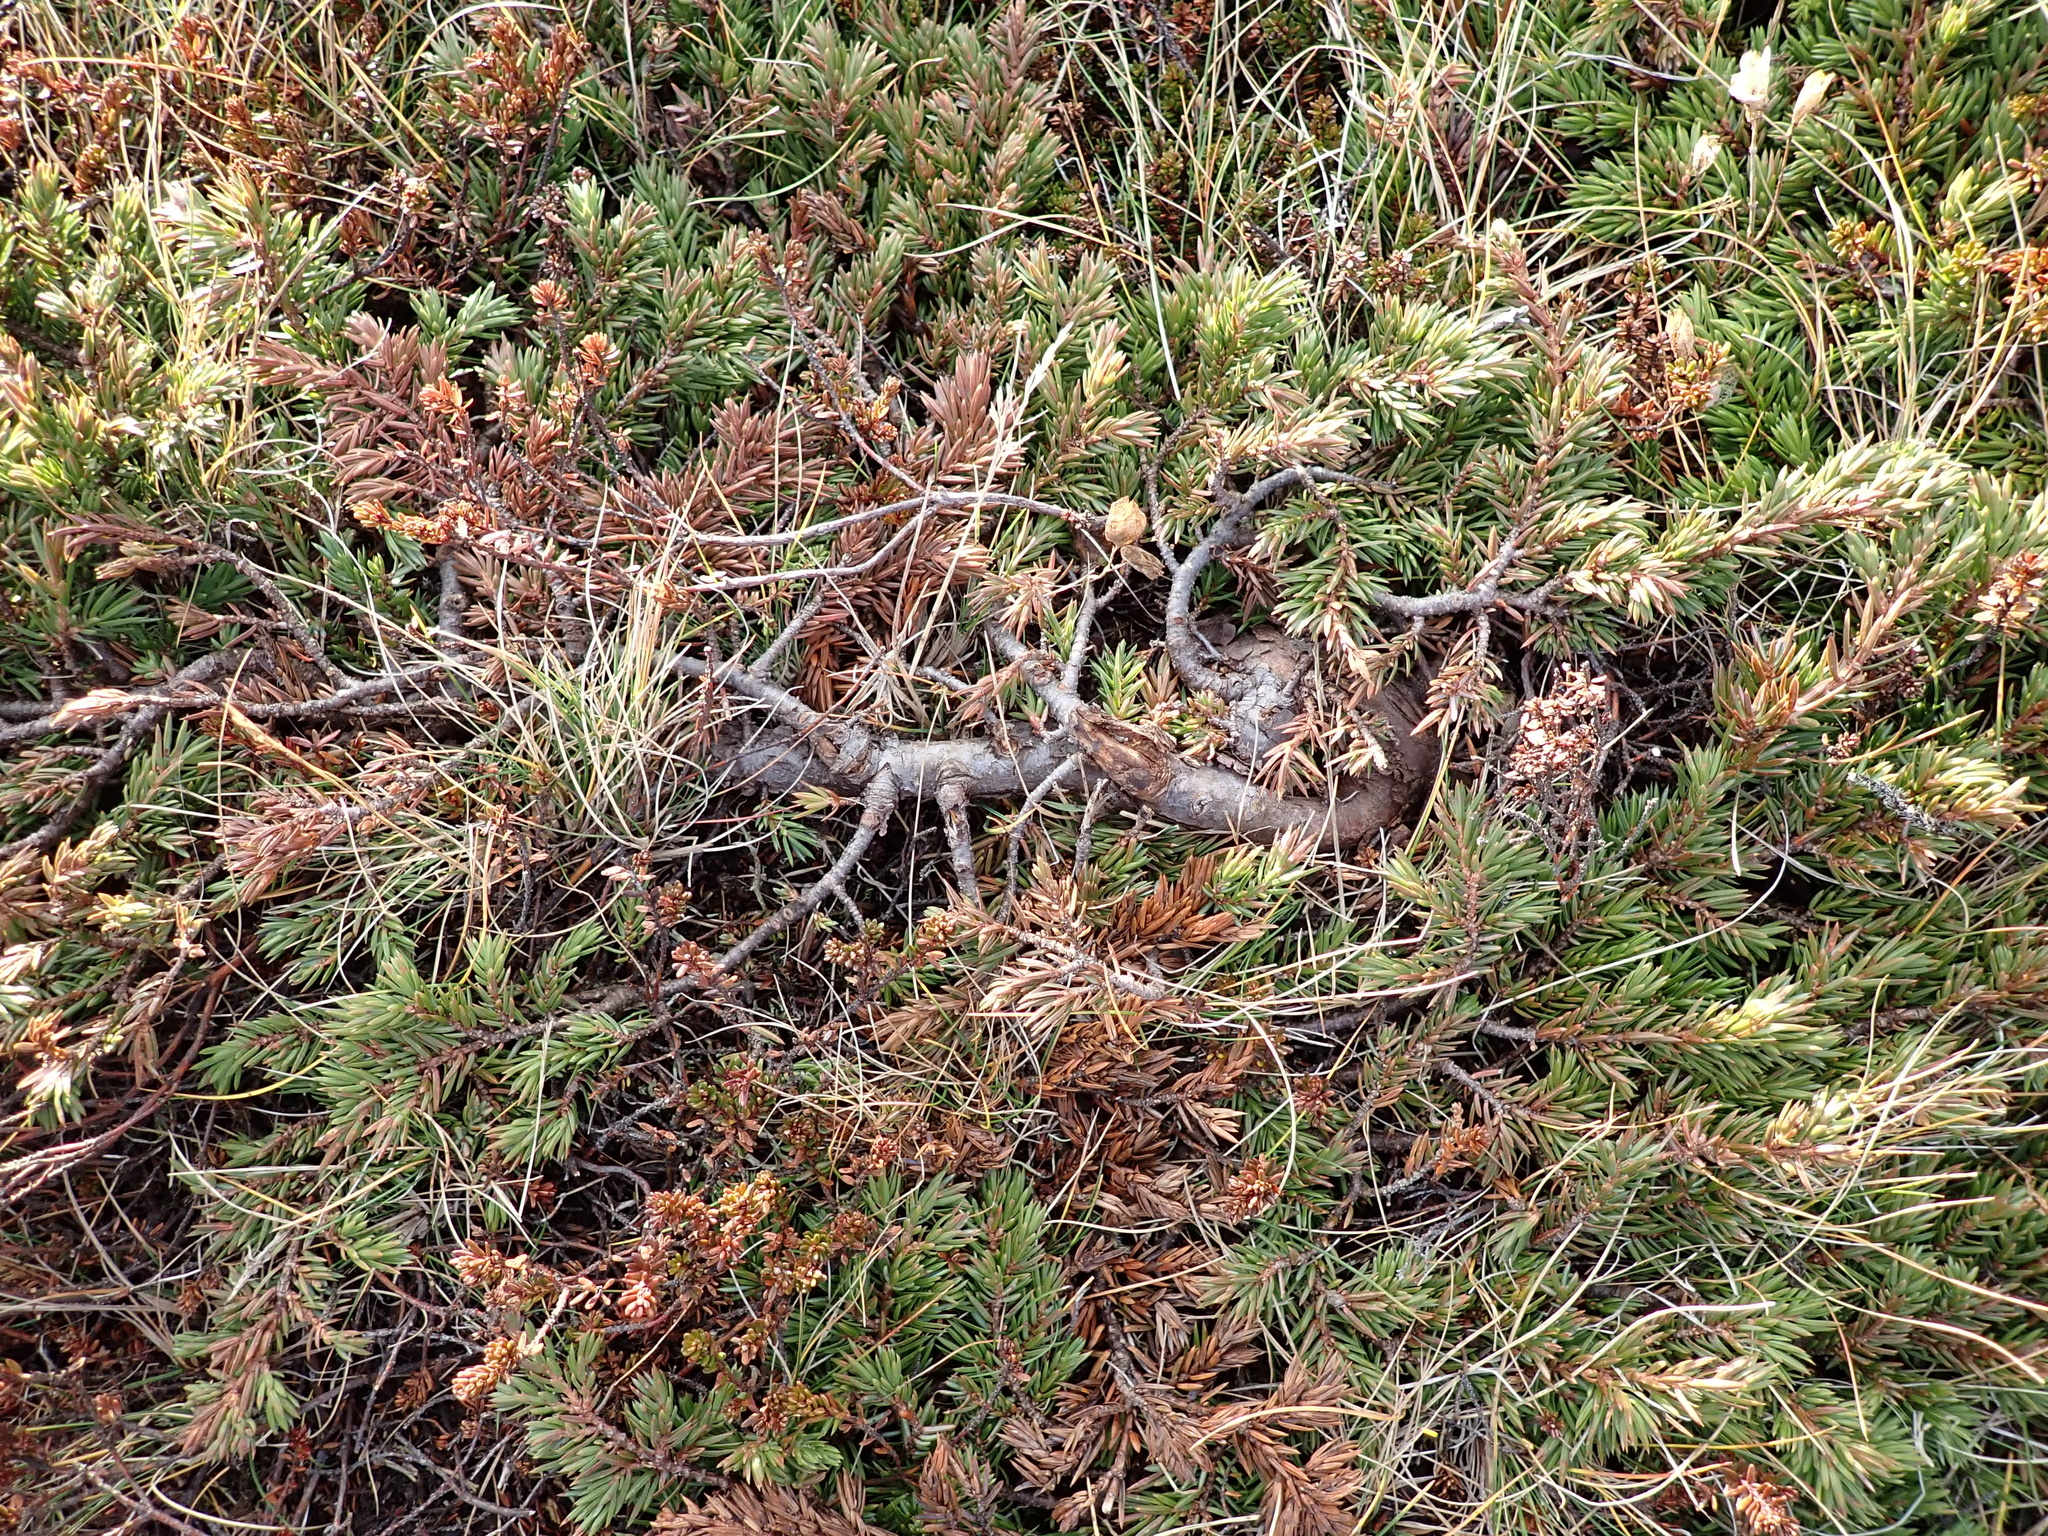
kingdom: Plantae
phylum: Tracheophyta
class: Pinopsida
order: Pinales
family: Cupressaceae
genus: Juniperus
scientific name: Juniperus communis
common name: Common juniper
